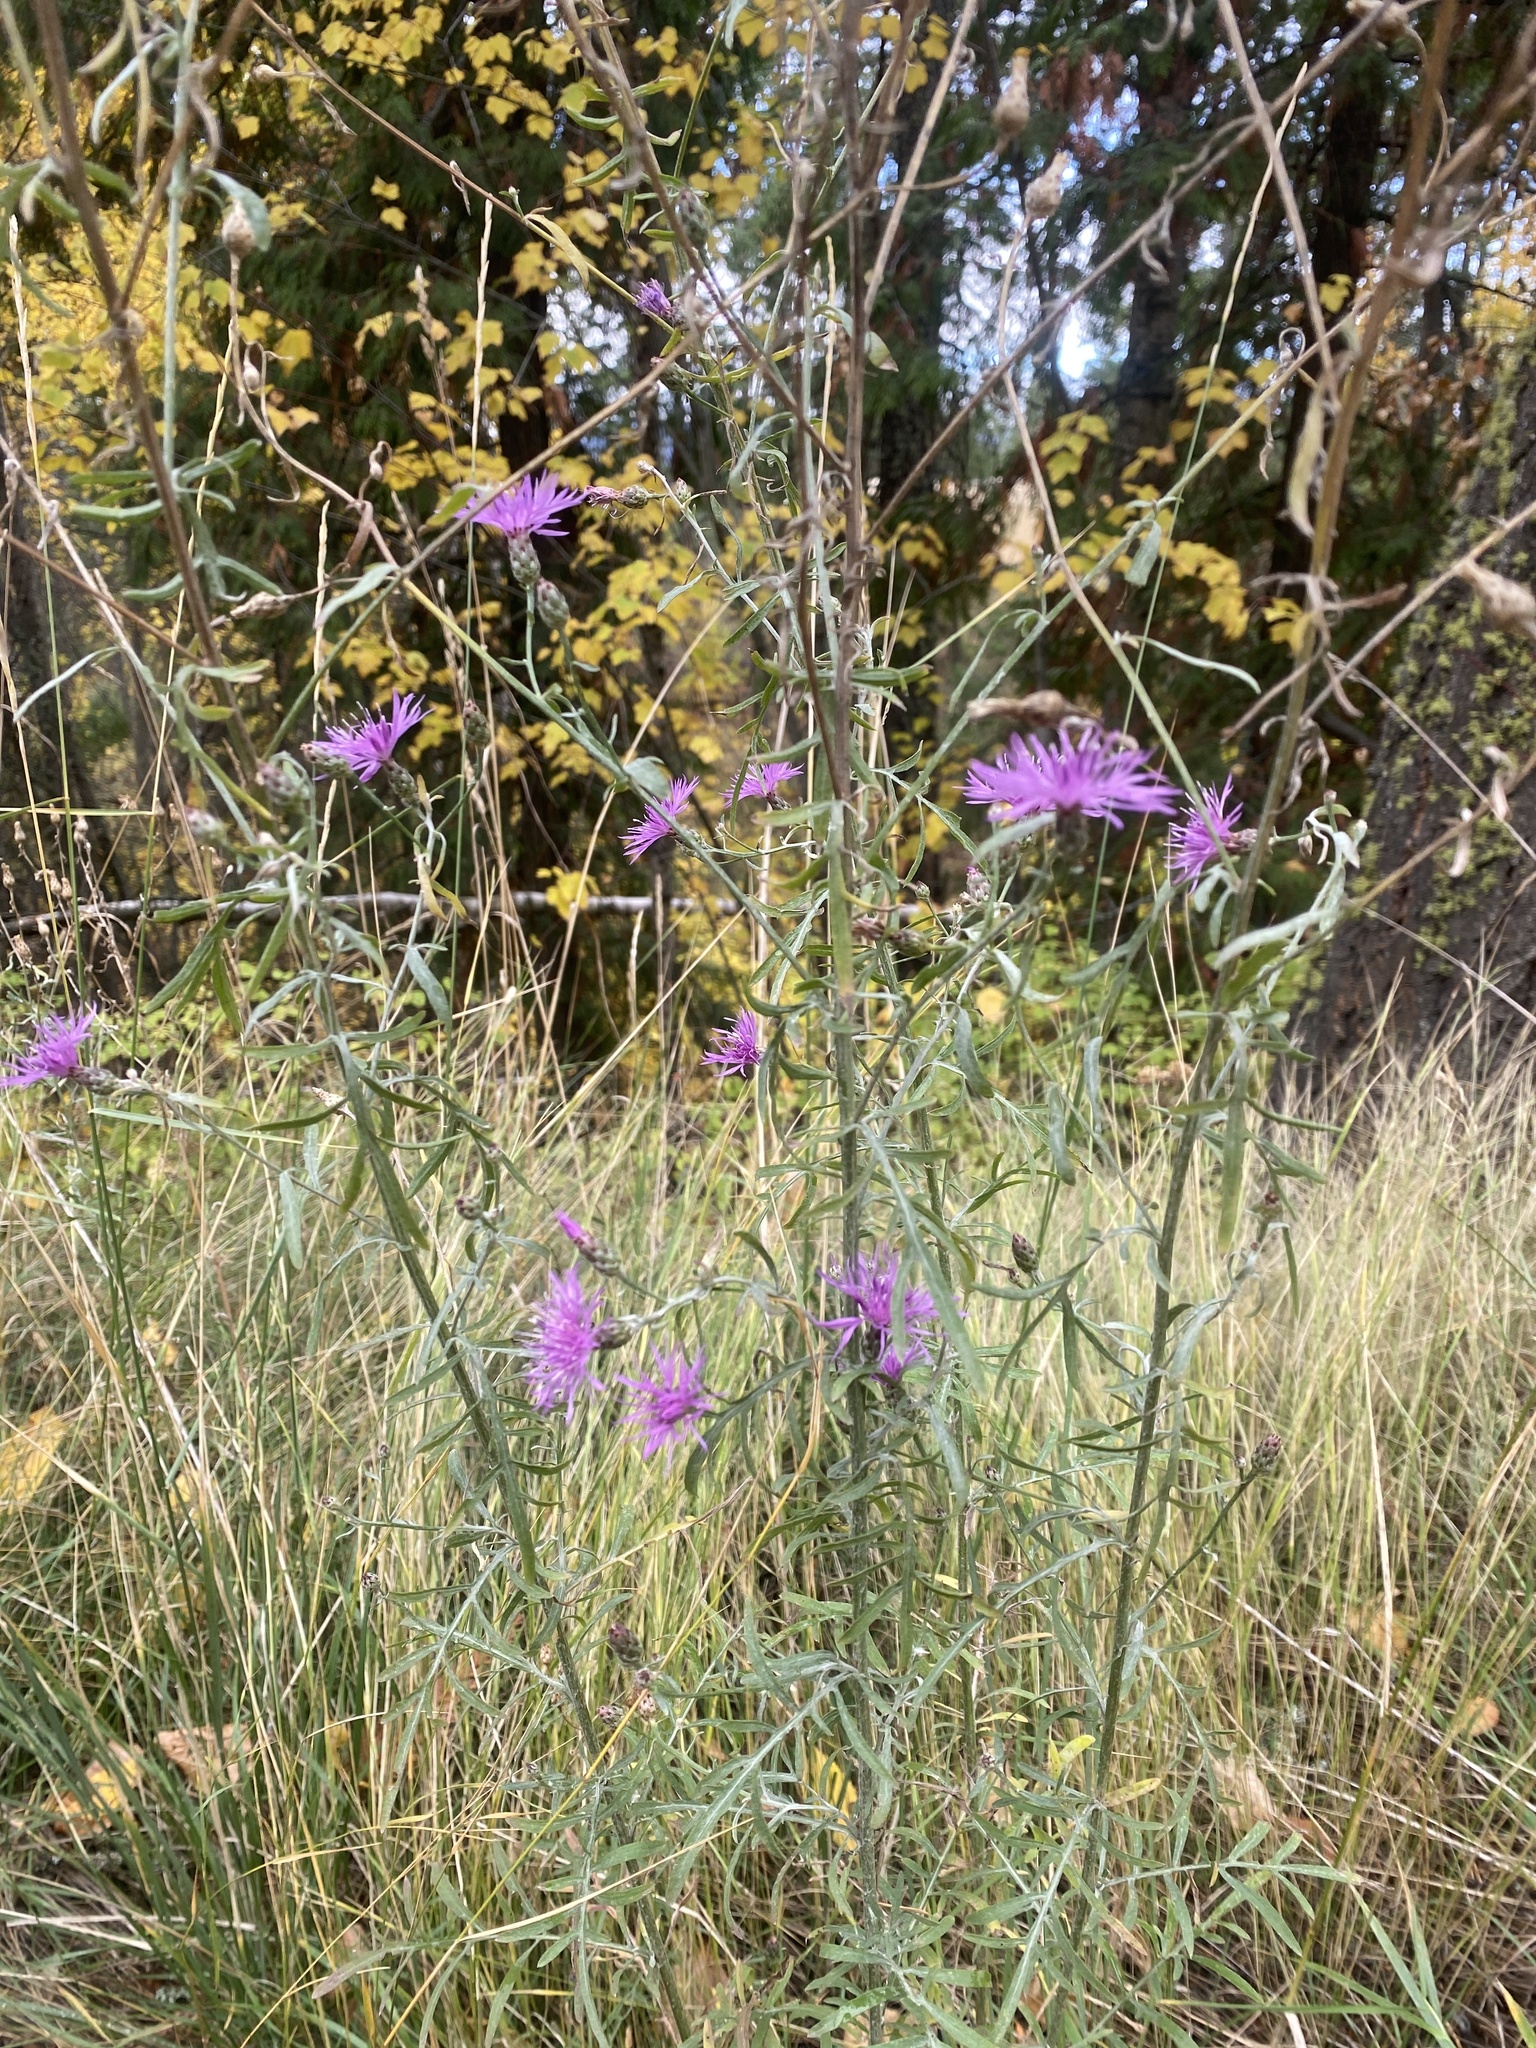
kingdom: Plantae
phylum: Tracheophyta
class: Magnoliopsida
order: Asterales
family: Asteraceae
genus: Centaurea
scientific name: Centaurea stoebe
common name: Spotted knapweed
